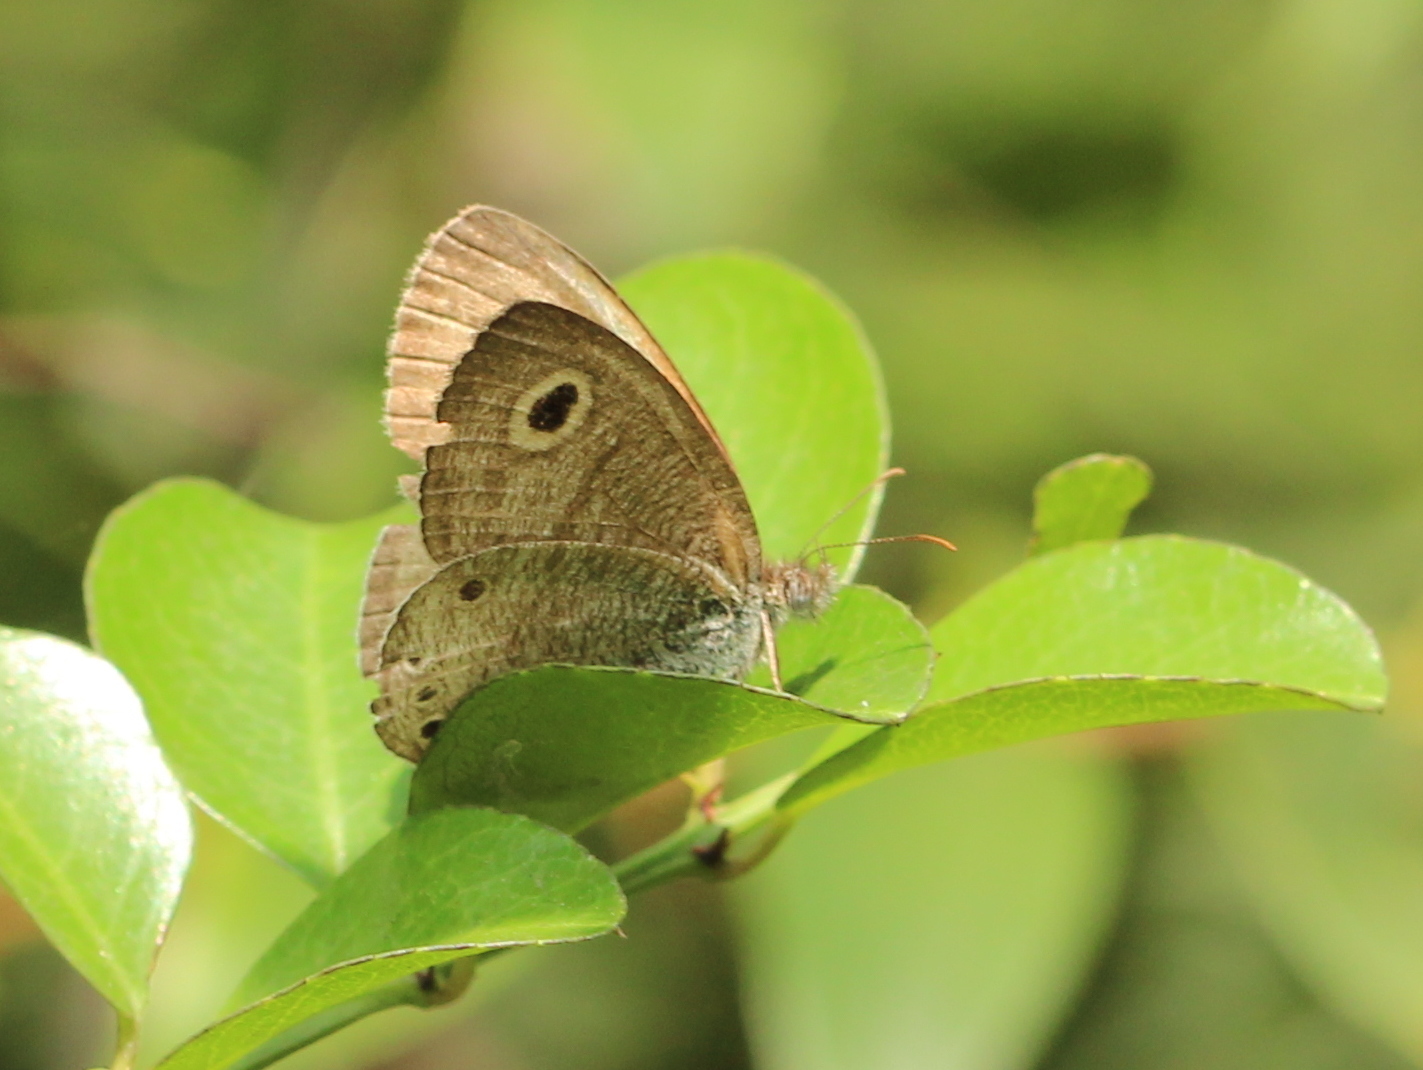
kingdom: Animalia
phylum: Arthropoda
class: Insecta
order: Lepidoptera
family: Nymphalidae
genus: Ypthima
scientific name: Ypthima huebneri
